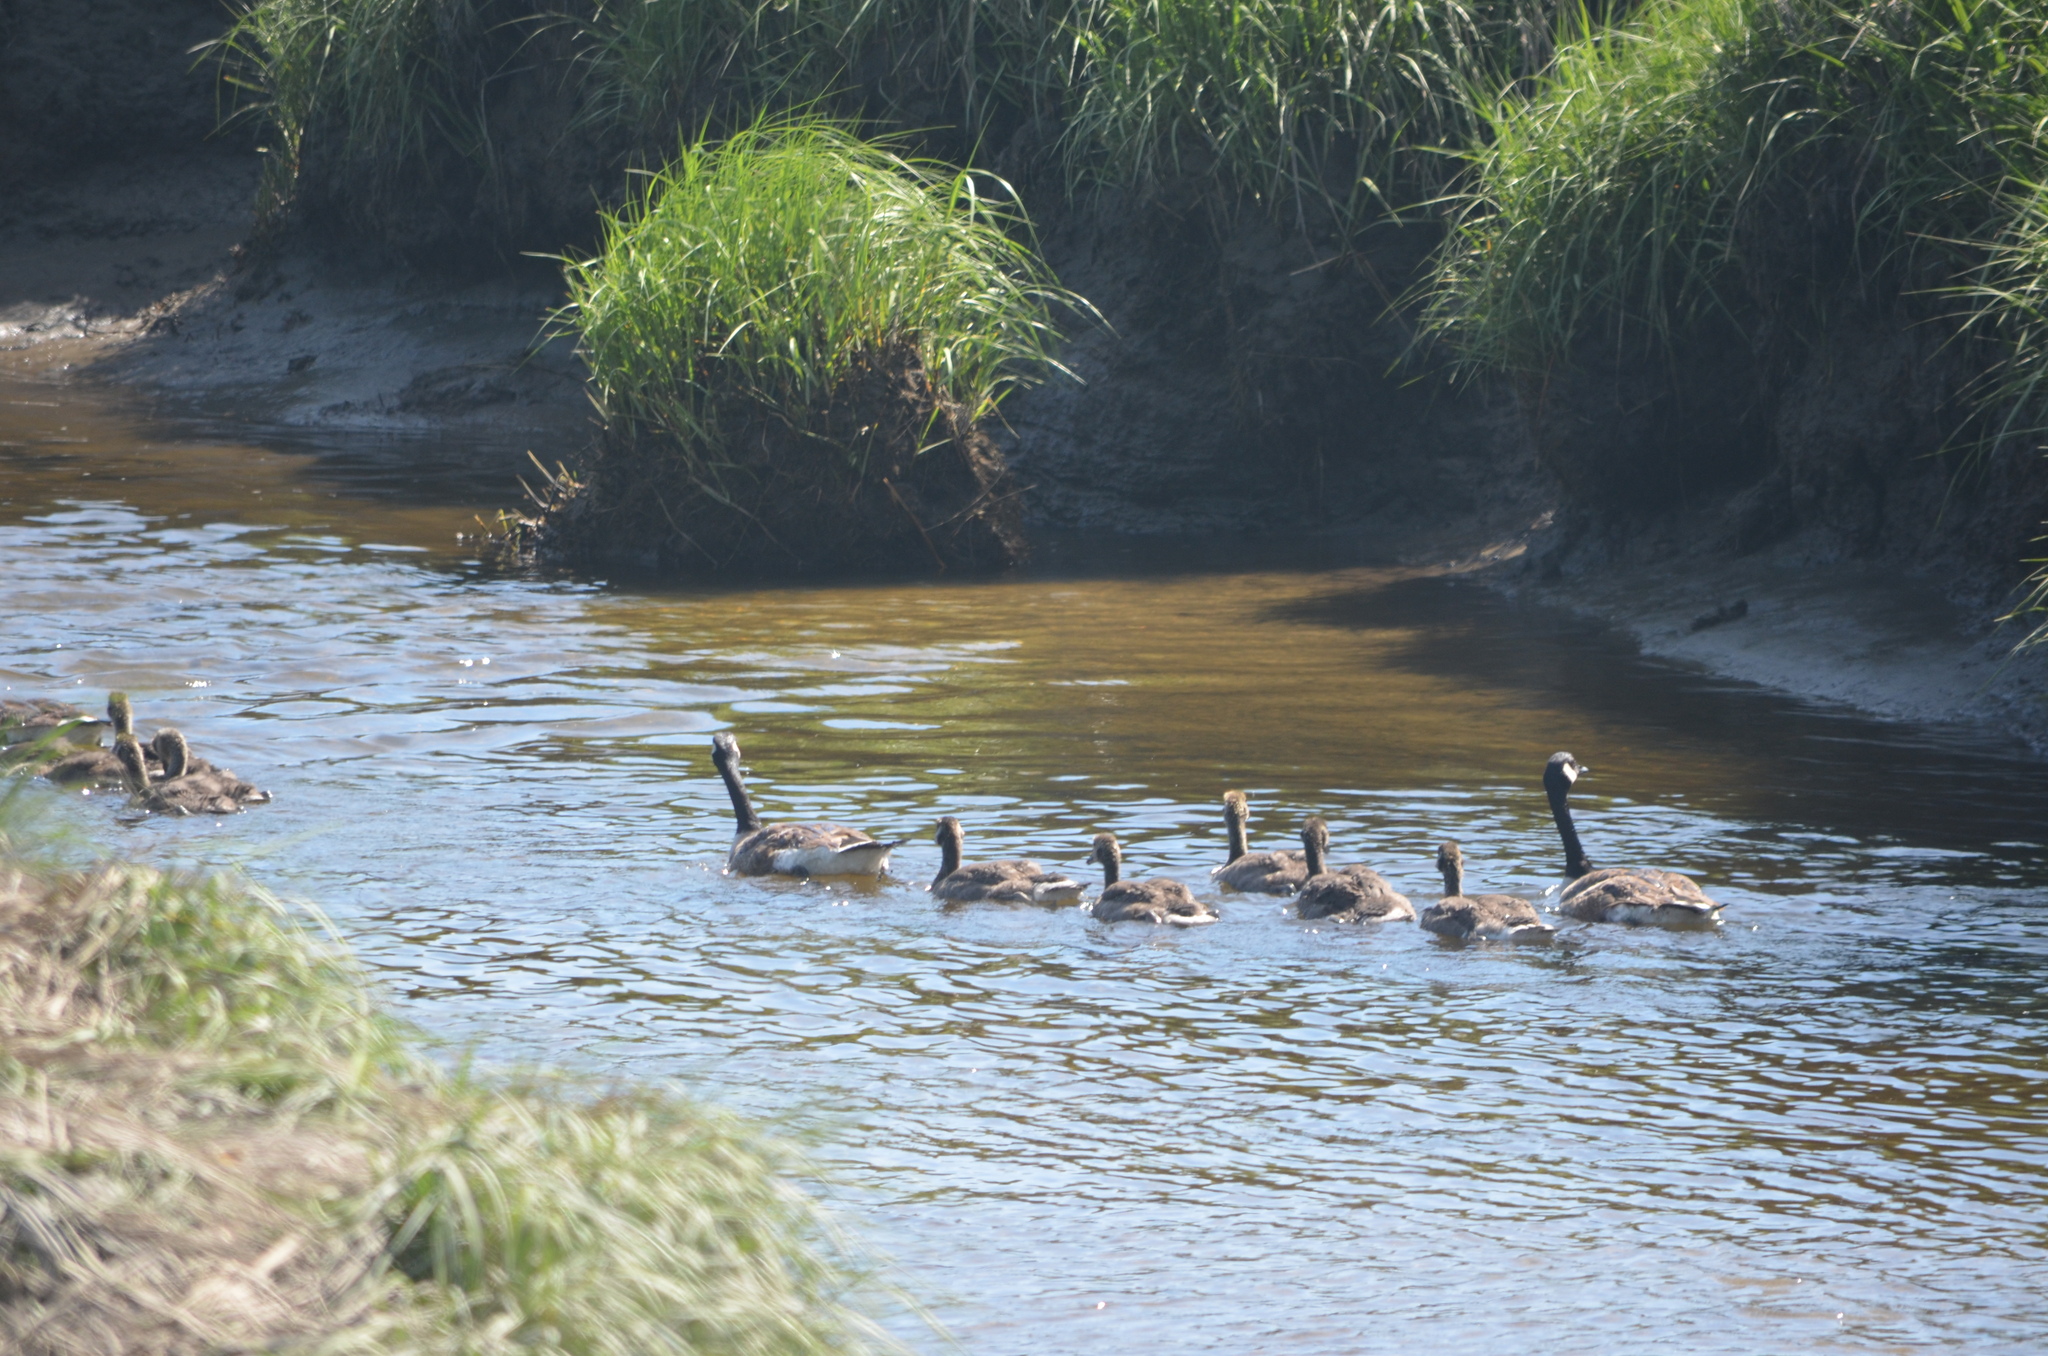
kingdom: Animalia
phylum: Chordata
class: Aves
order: Anseriformes
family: Anatidae
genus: Branta
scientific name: Branta canadensis
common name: Canada goose
